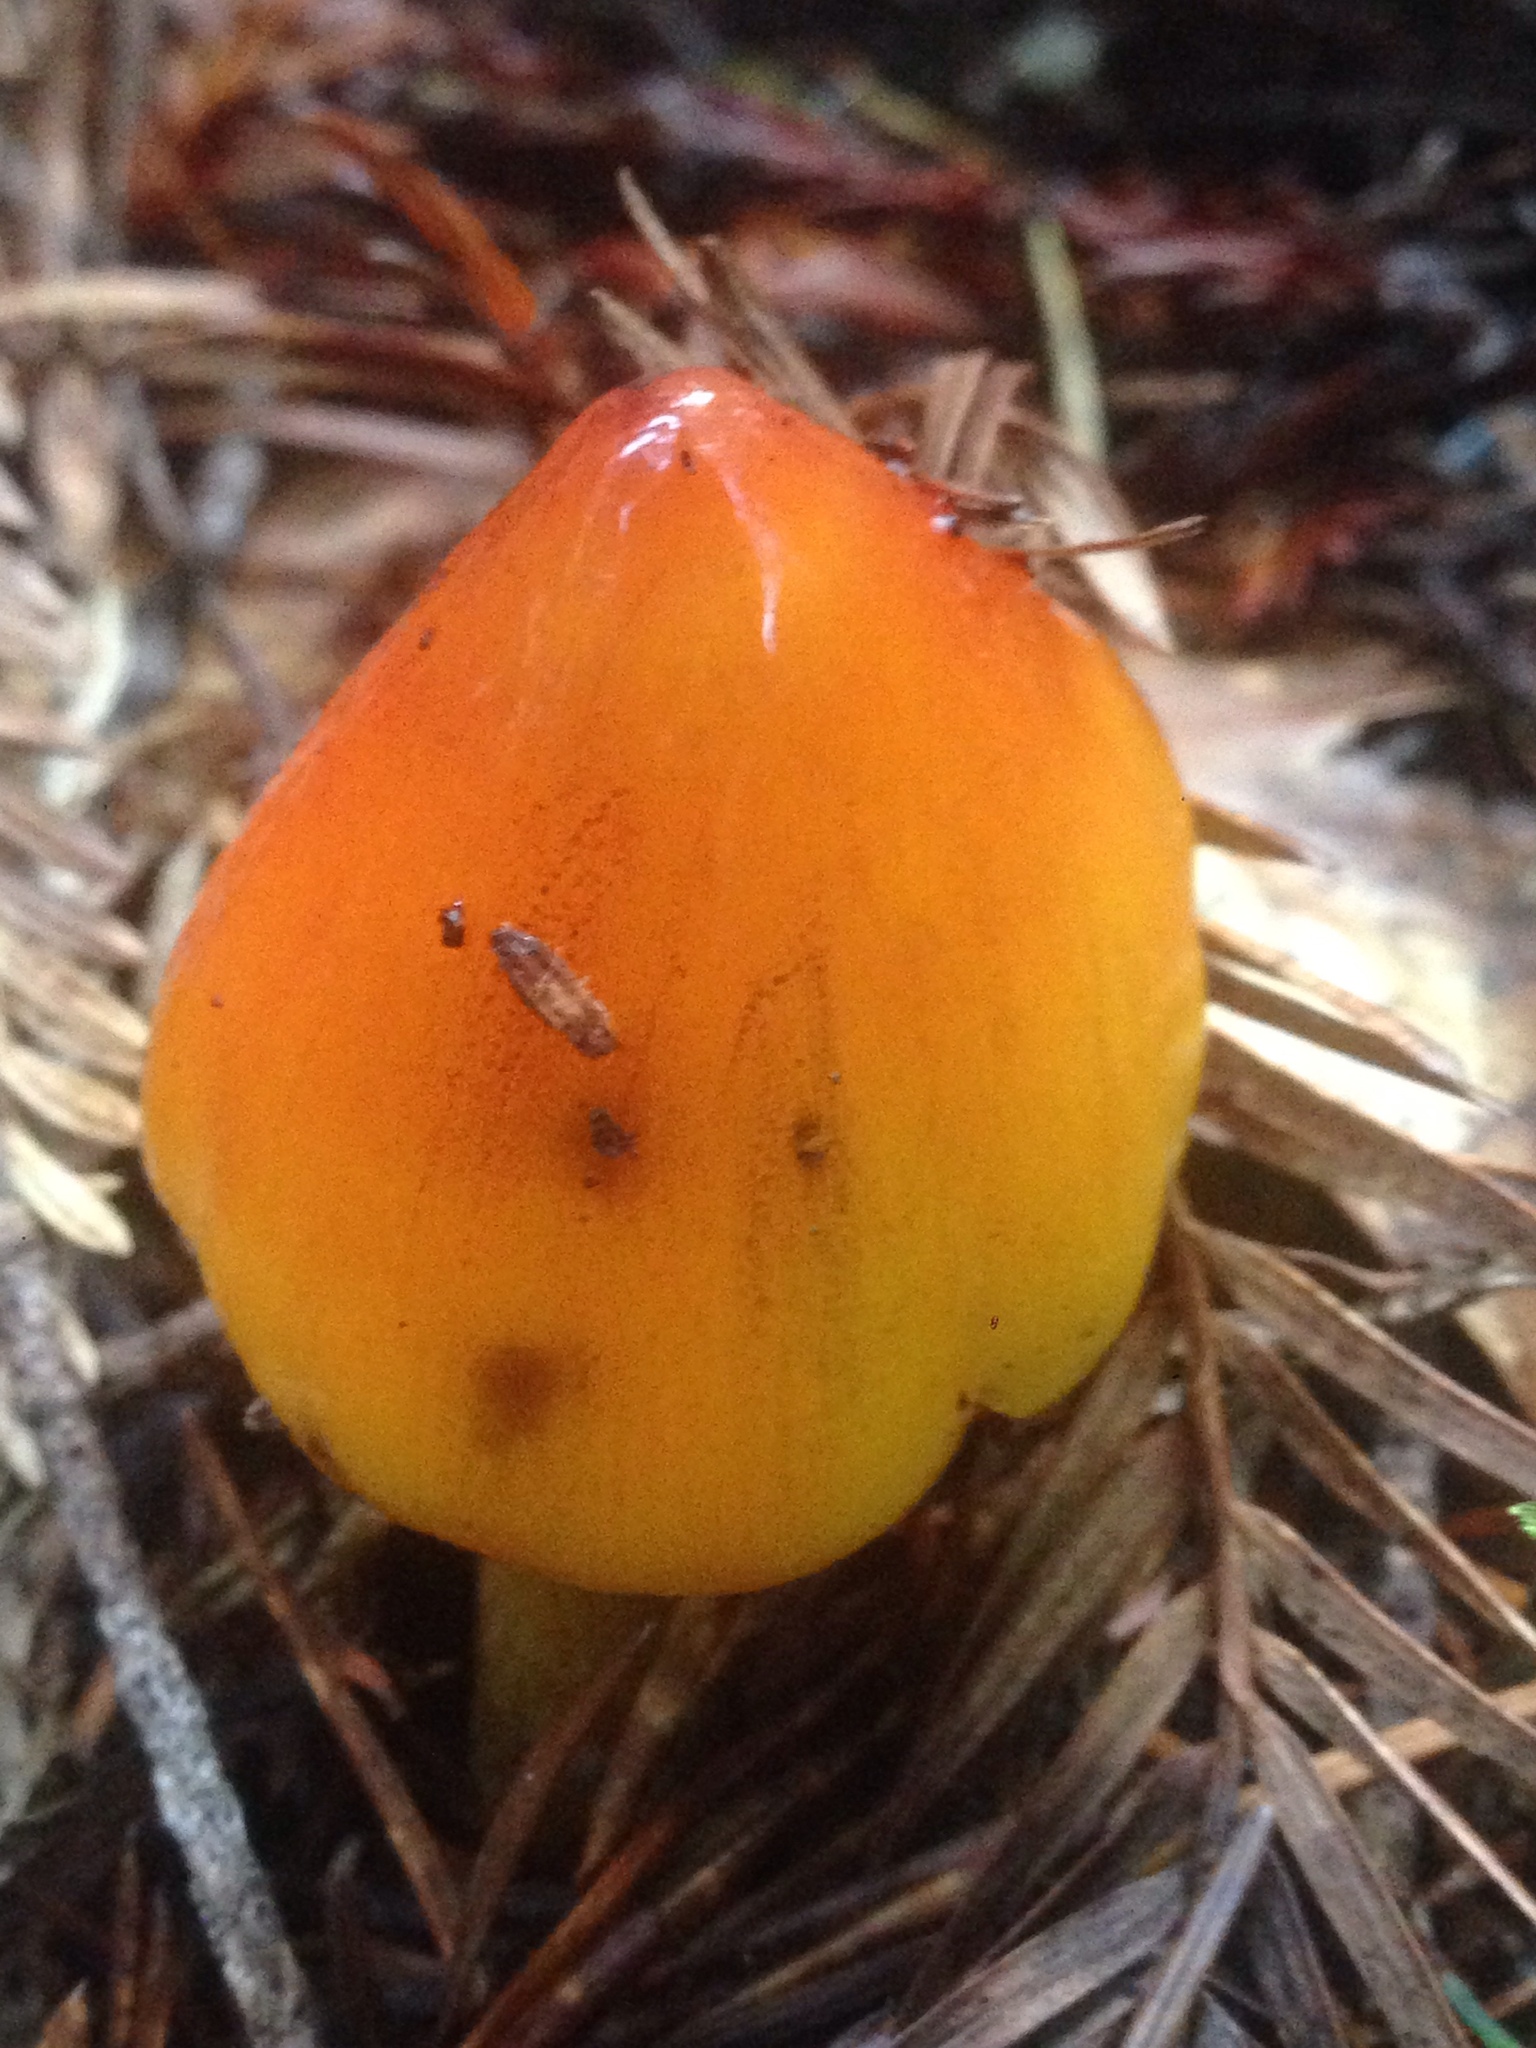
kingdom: Fungi
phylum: Basidiomycota
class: Agaricomycetes
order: Agaricales
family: Hygrophoraceae
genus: Hygrocybe
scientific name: Hygrocybe singeri
